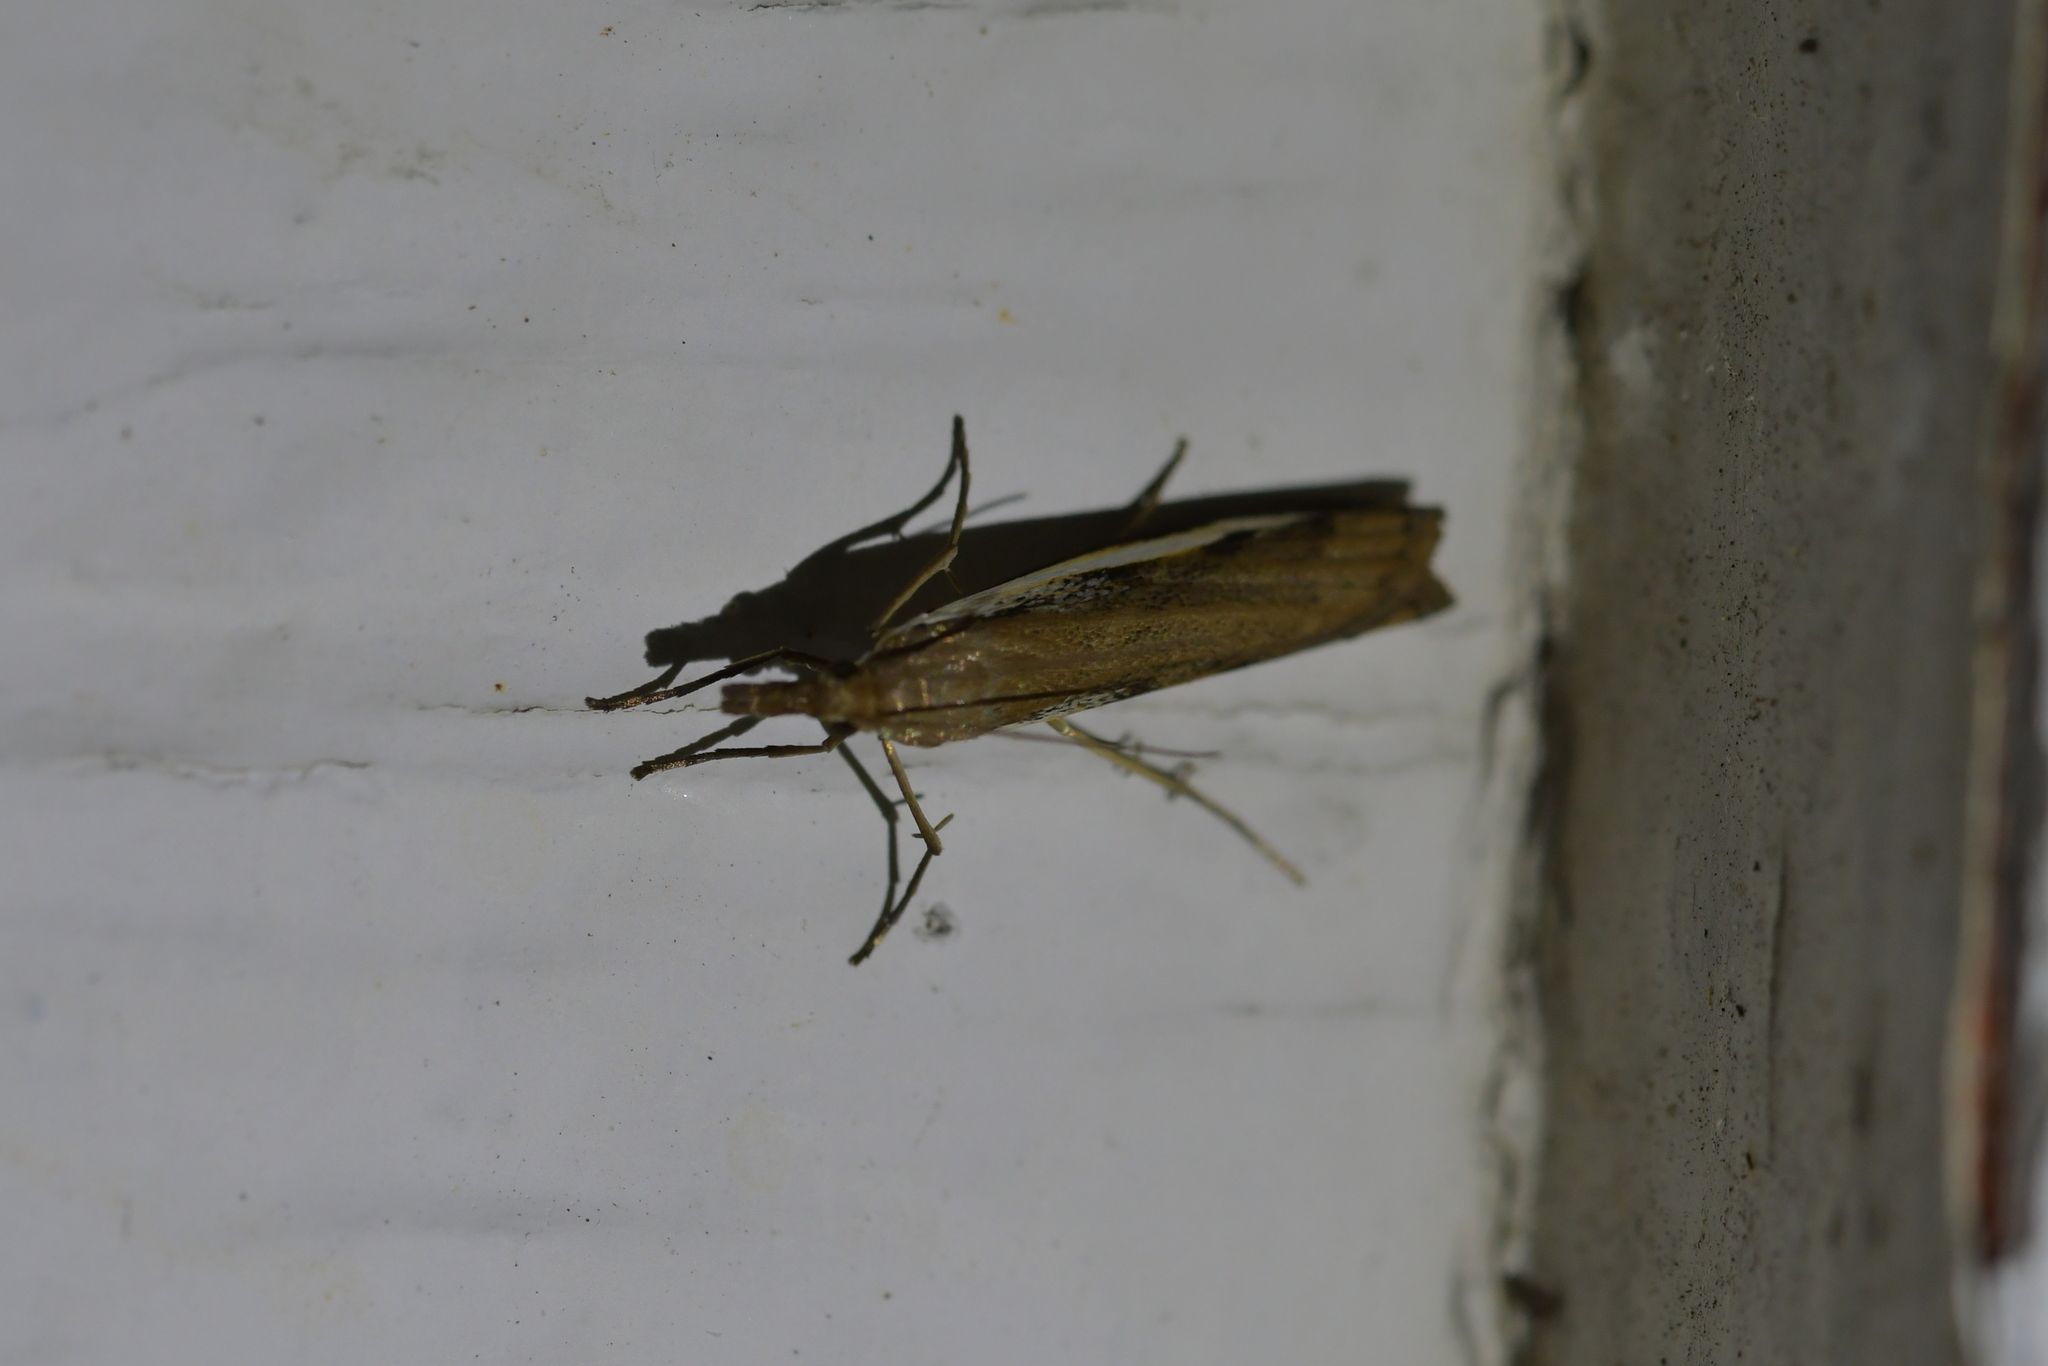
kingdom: Animalia
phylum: Arthropoda
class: Insecta
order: Lepidoptera
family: Crambidae
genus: Orocrambus
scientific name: Orocrambus flexuosellus
